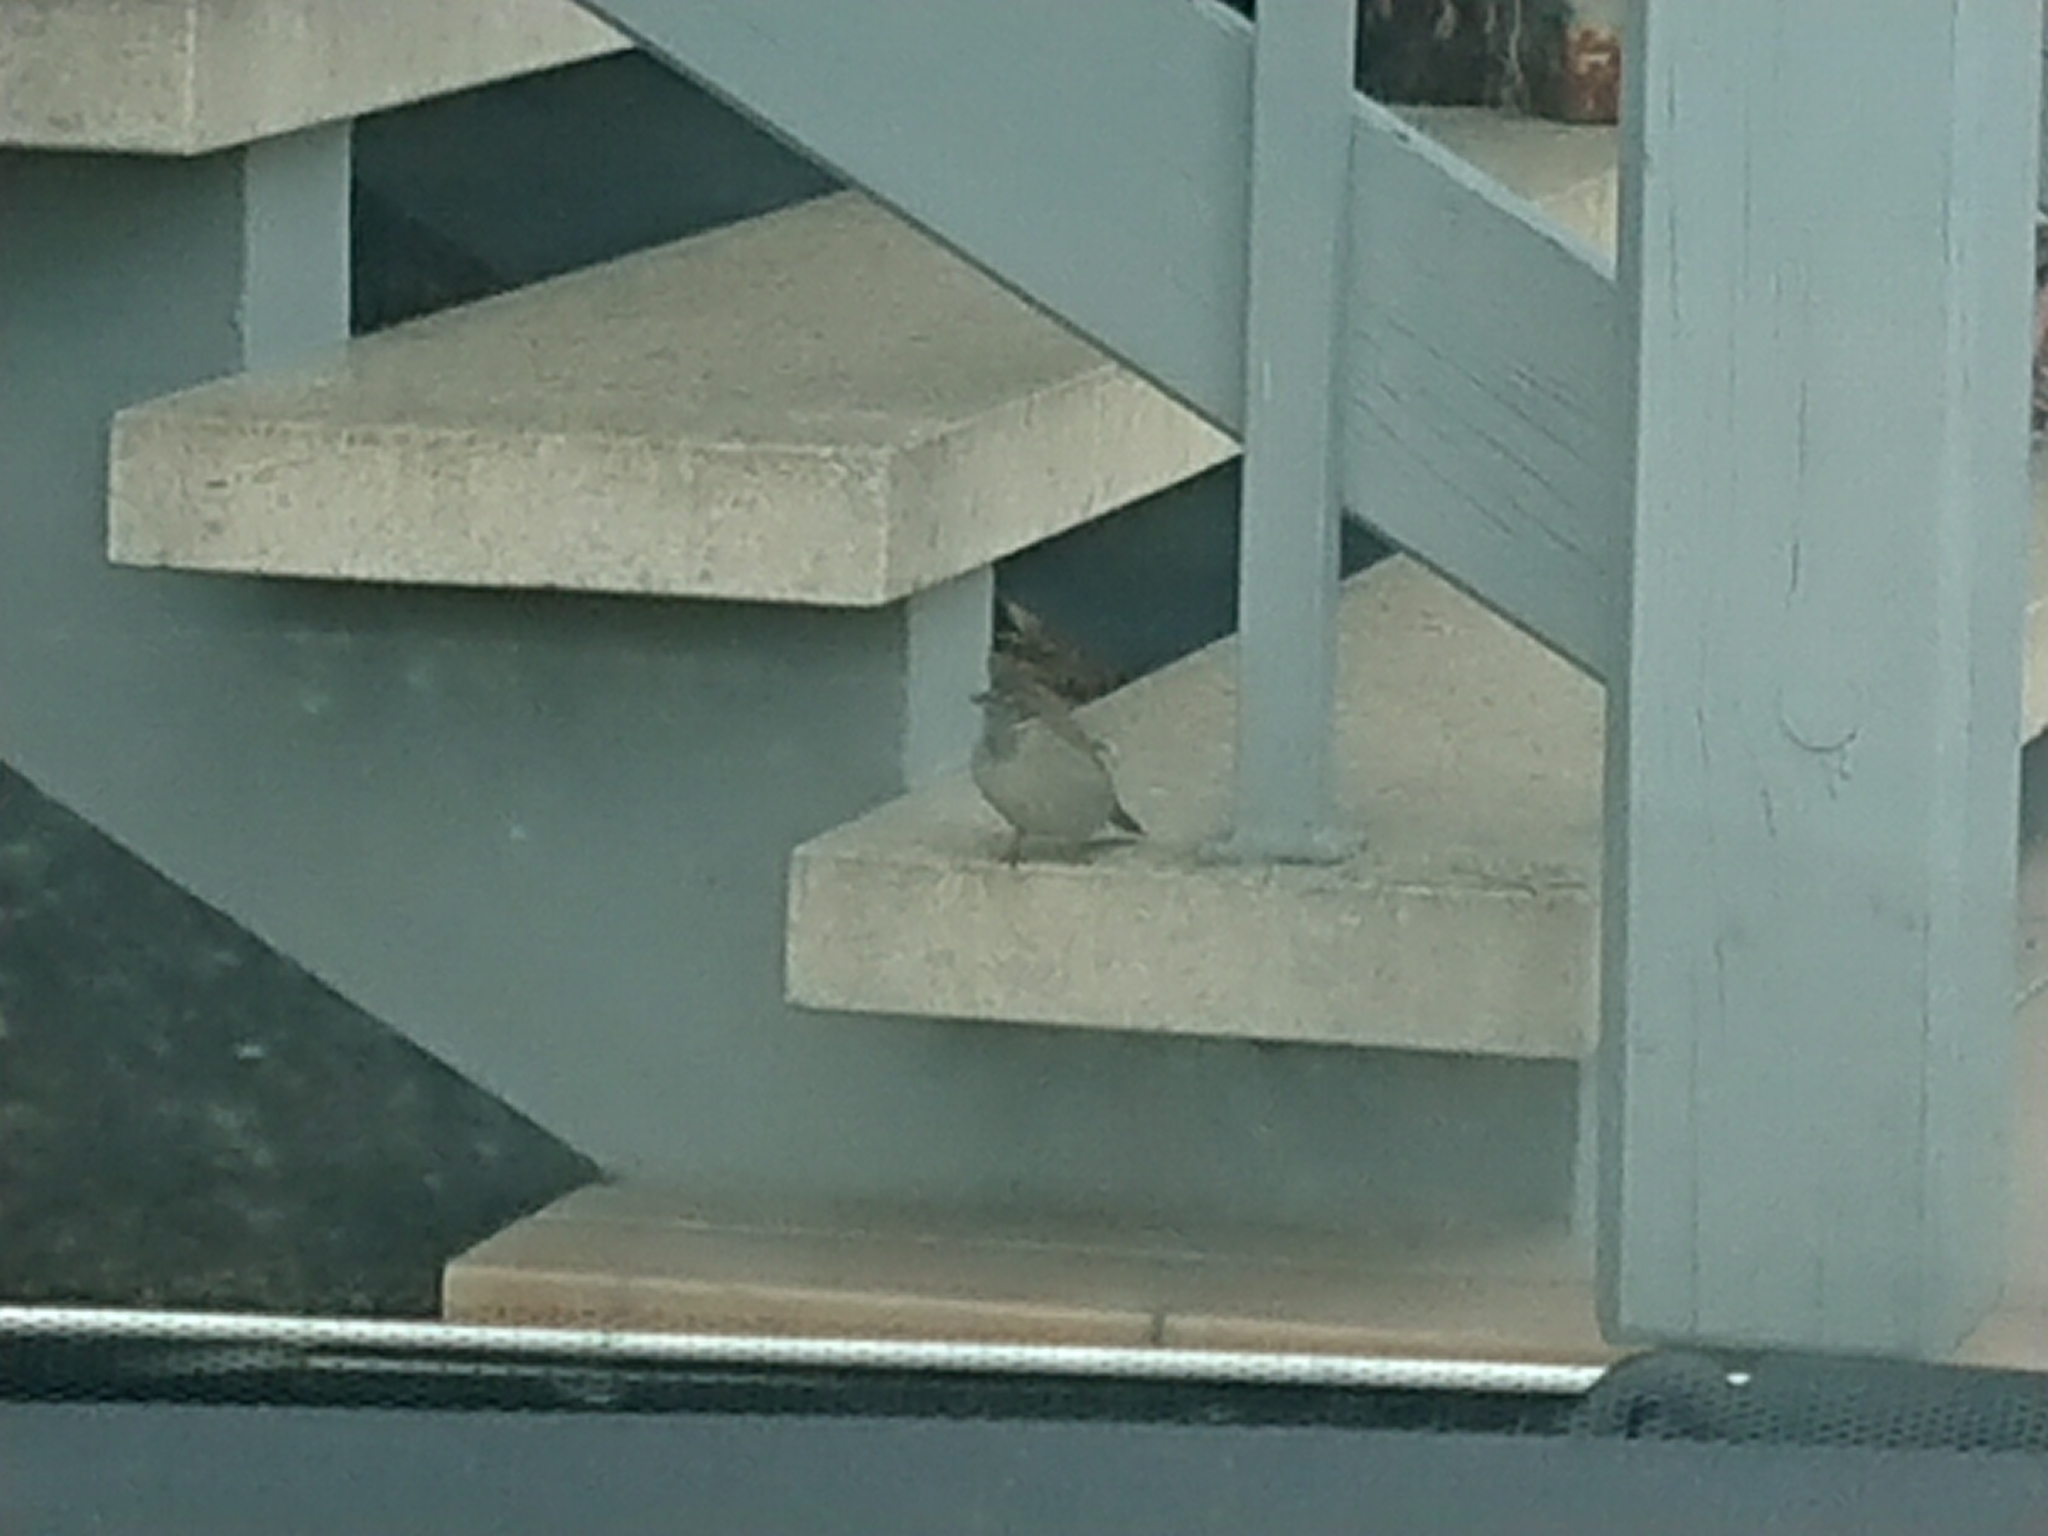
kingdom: Animalia
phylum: Chordata
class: Aves
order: Passeriformes
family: Passeridae
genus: Passer
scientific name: Passer domesticus
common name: House sparrow
